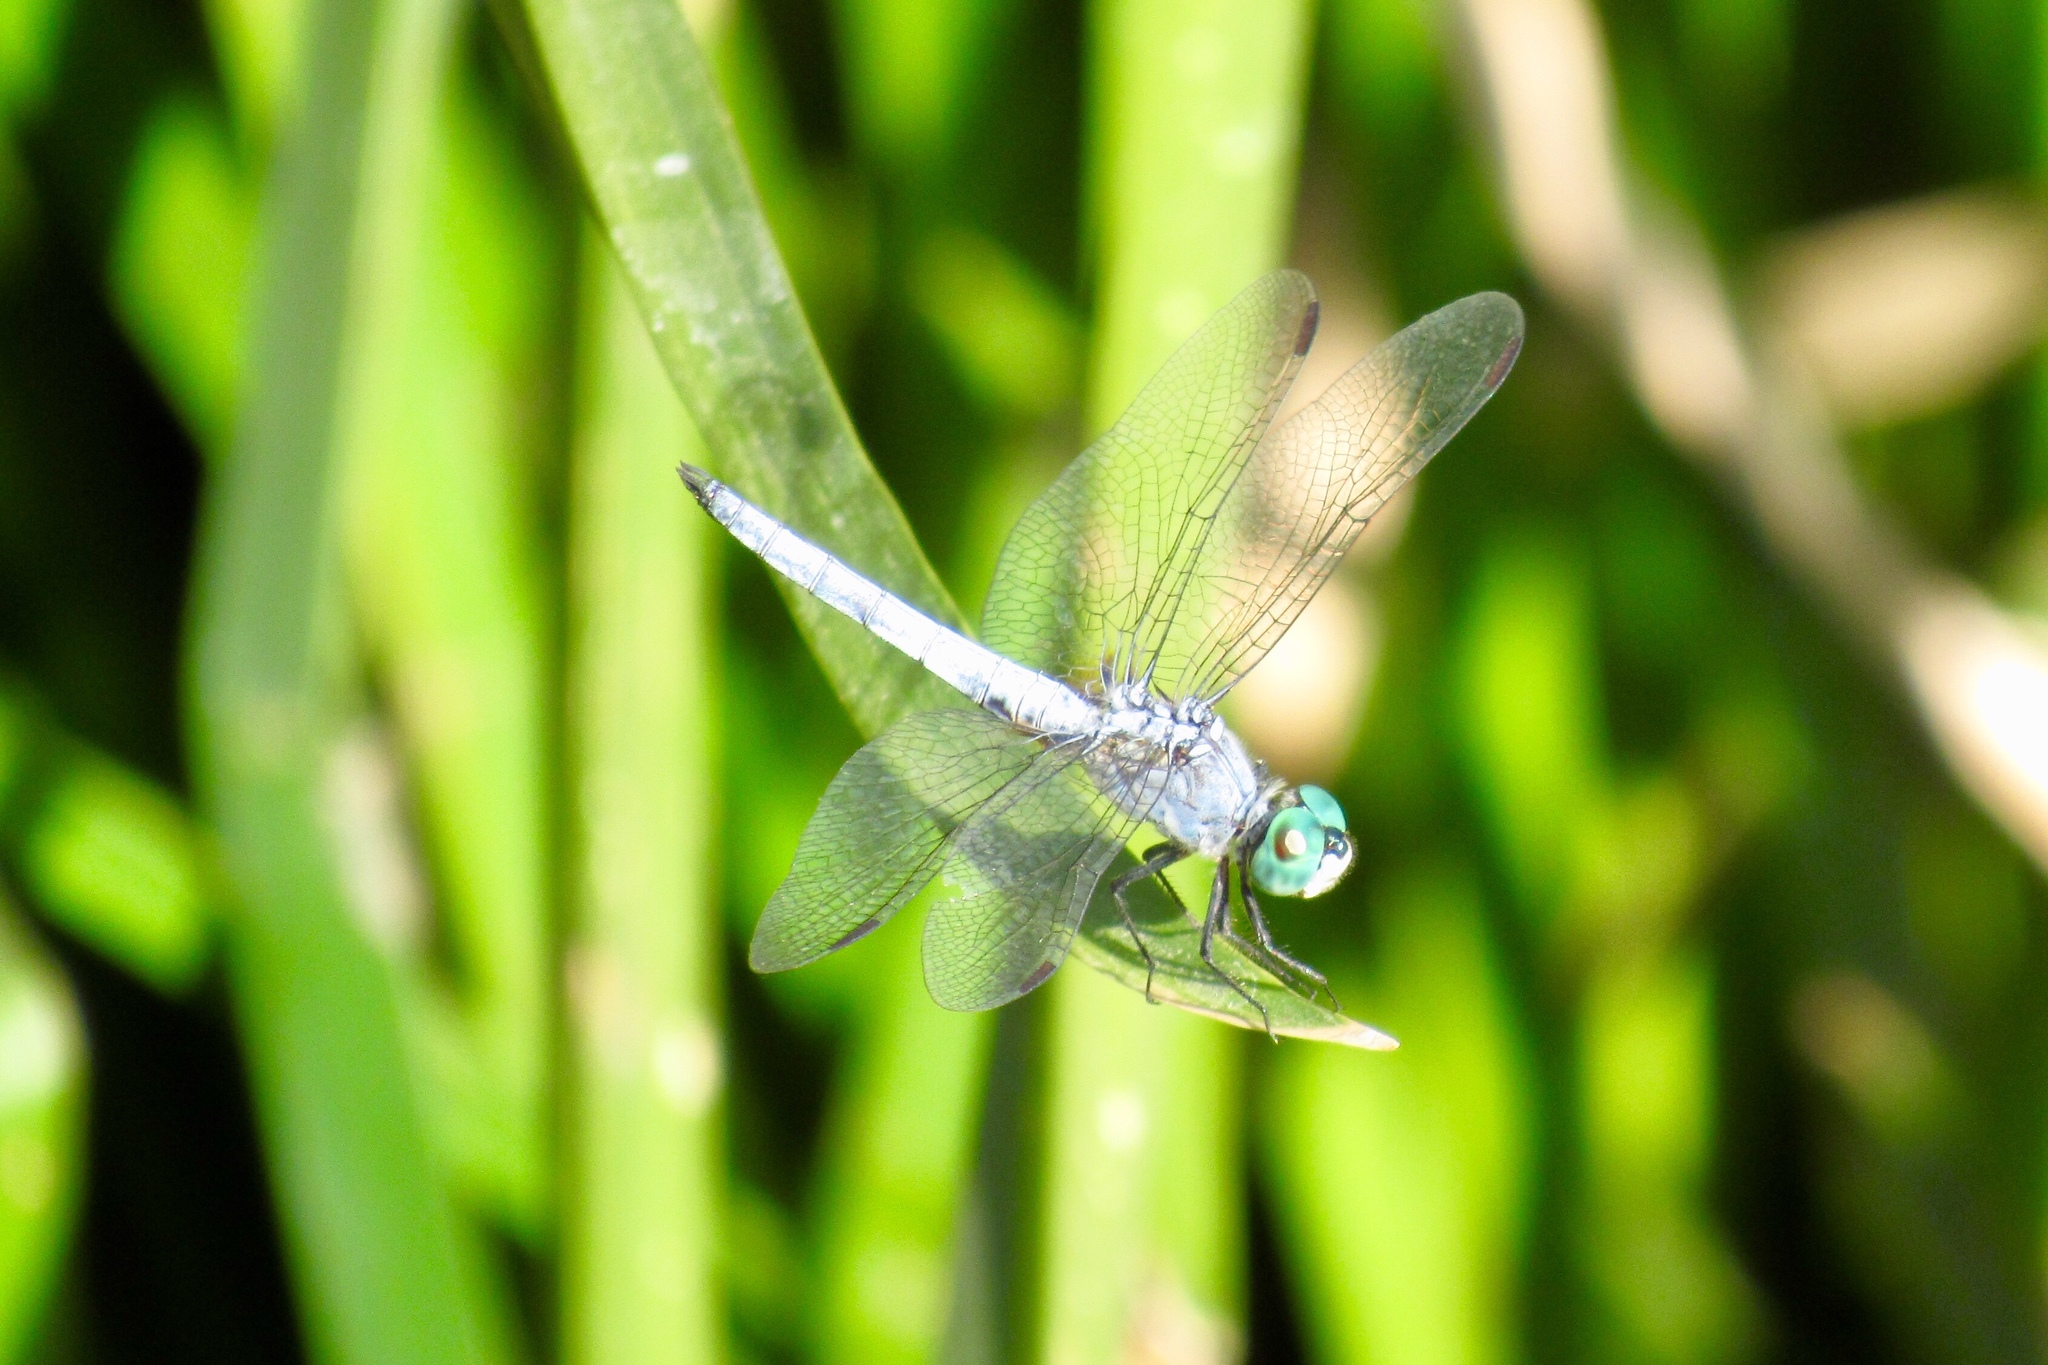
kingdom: Animalia
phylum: Arthropoda
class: Insecta
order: Odonata
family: Libellulidae
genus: Pachydiplax
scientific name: Pachydiplax longipennis
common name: Blue dasher
